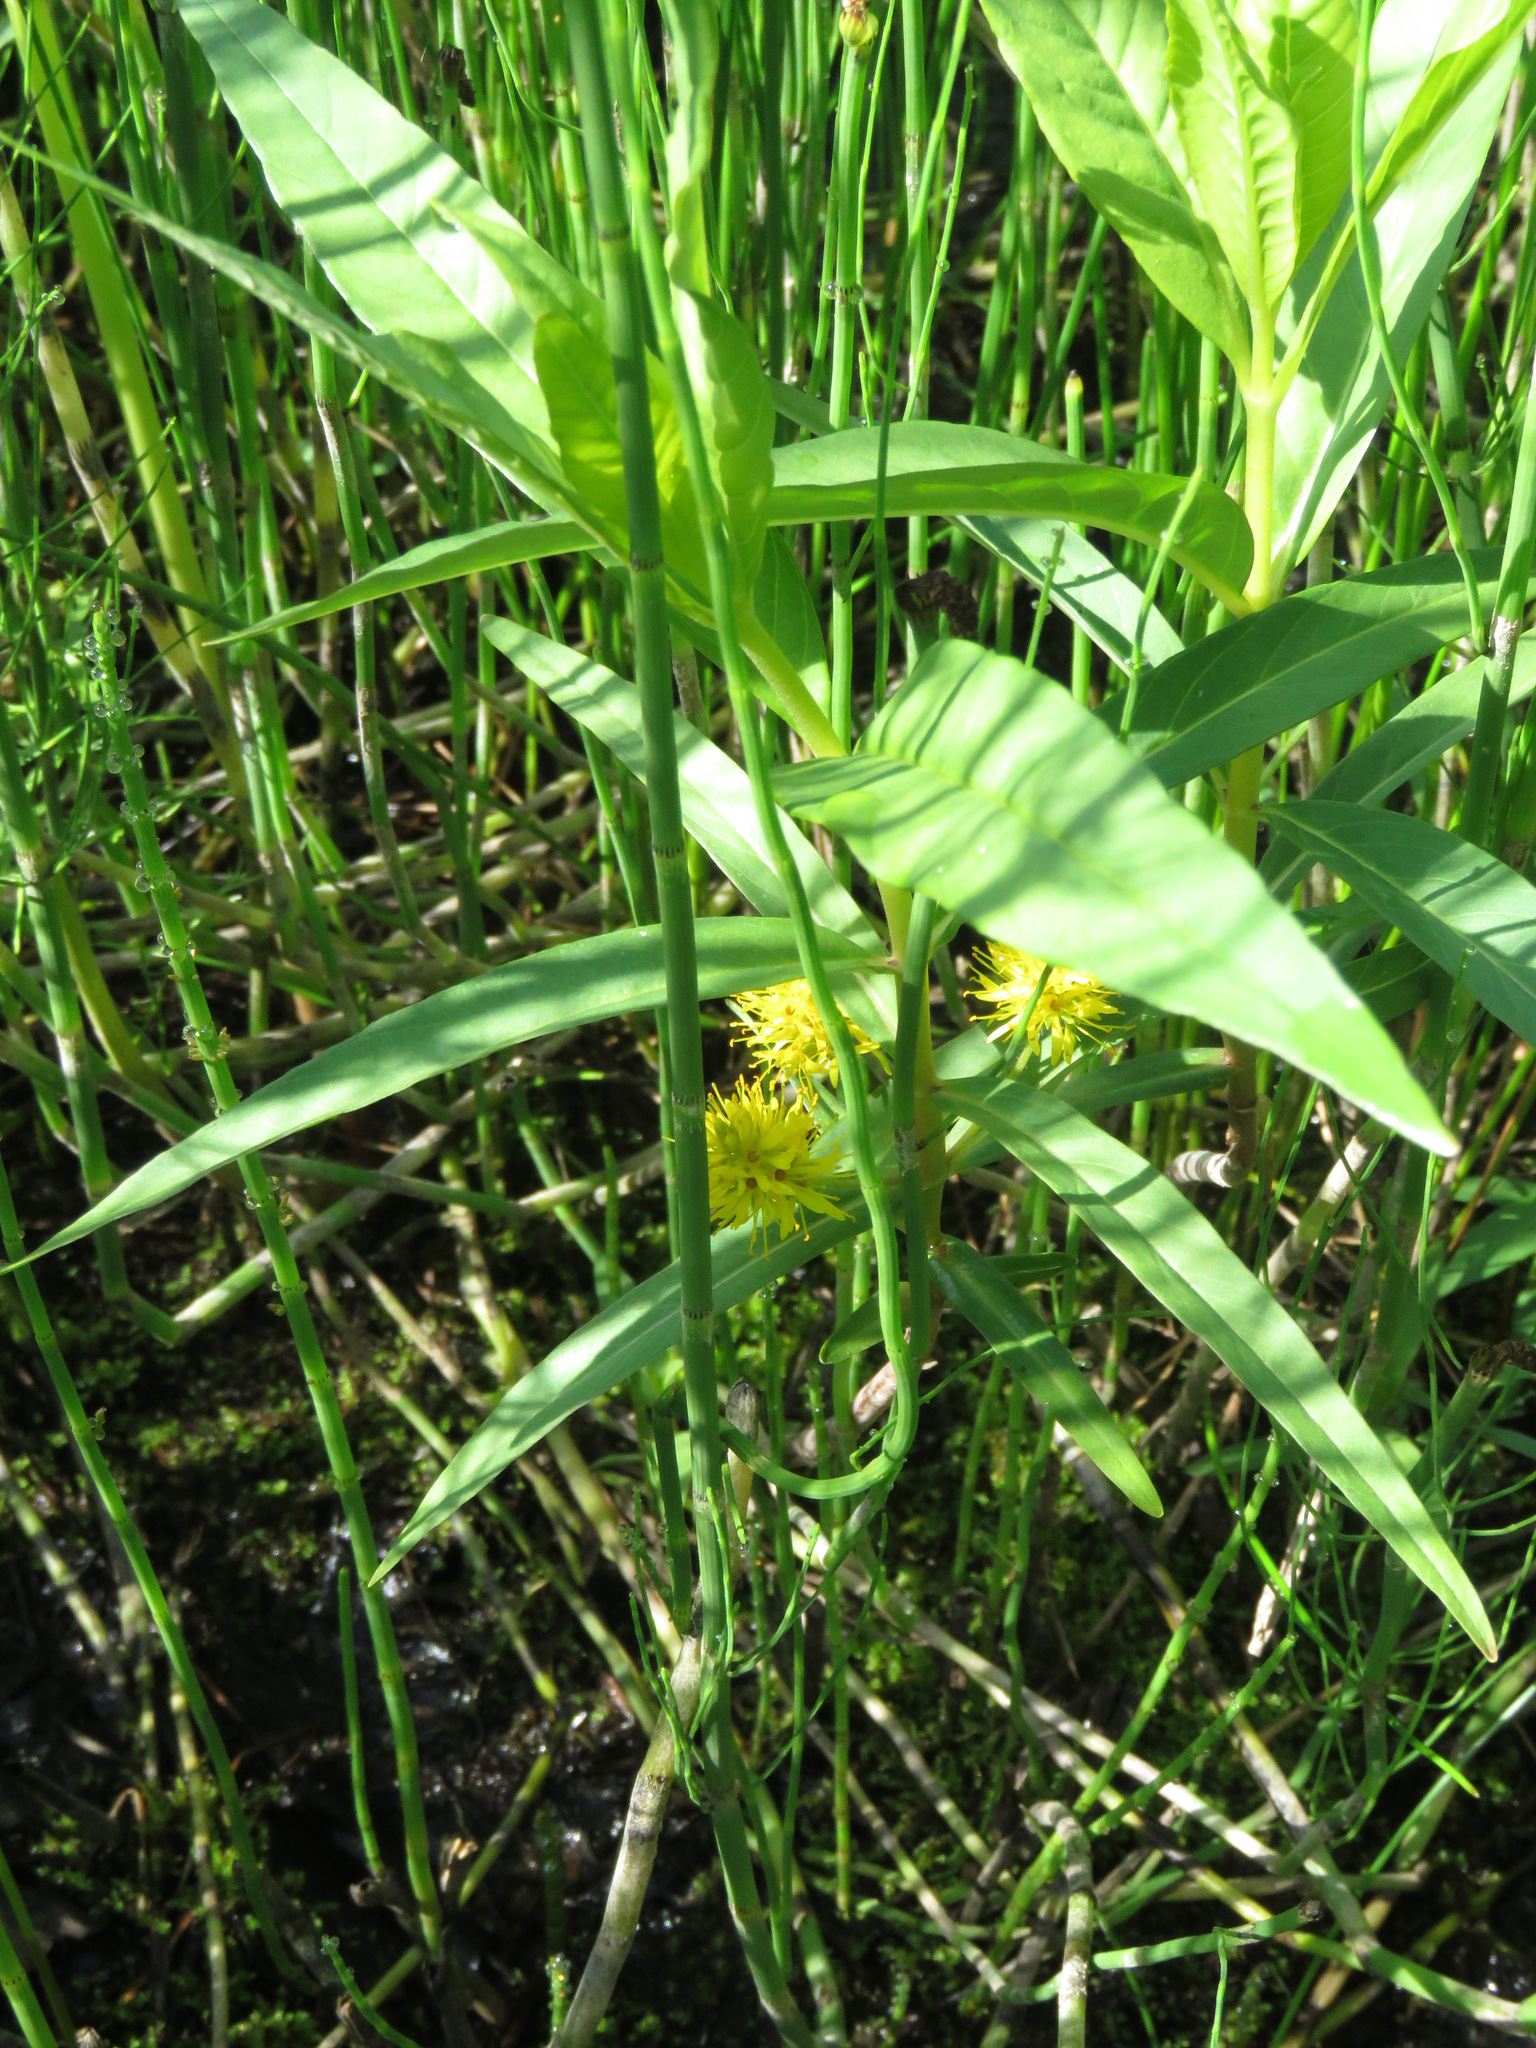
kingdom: Plantae
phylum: Tracheophyta
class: Magnoliopsida
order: Ericales
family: Primulaceae
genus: Lysimachia
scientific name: Lysimachia thyrsiflora
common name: Tufted loosestrife
